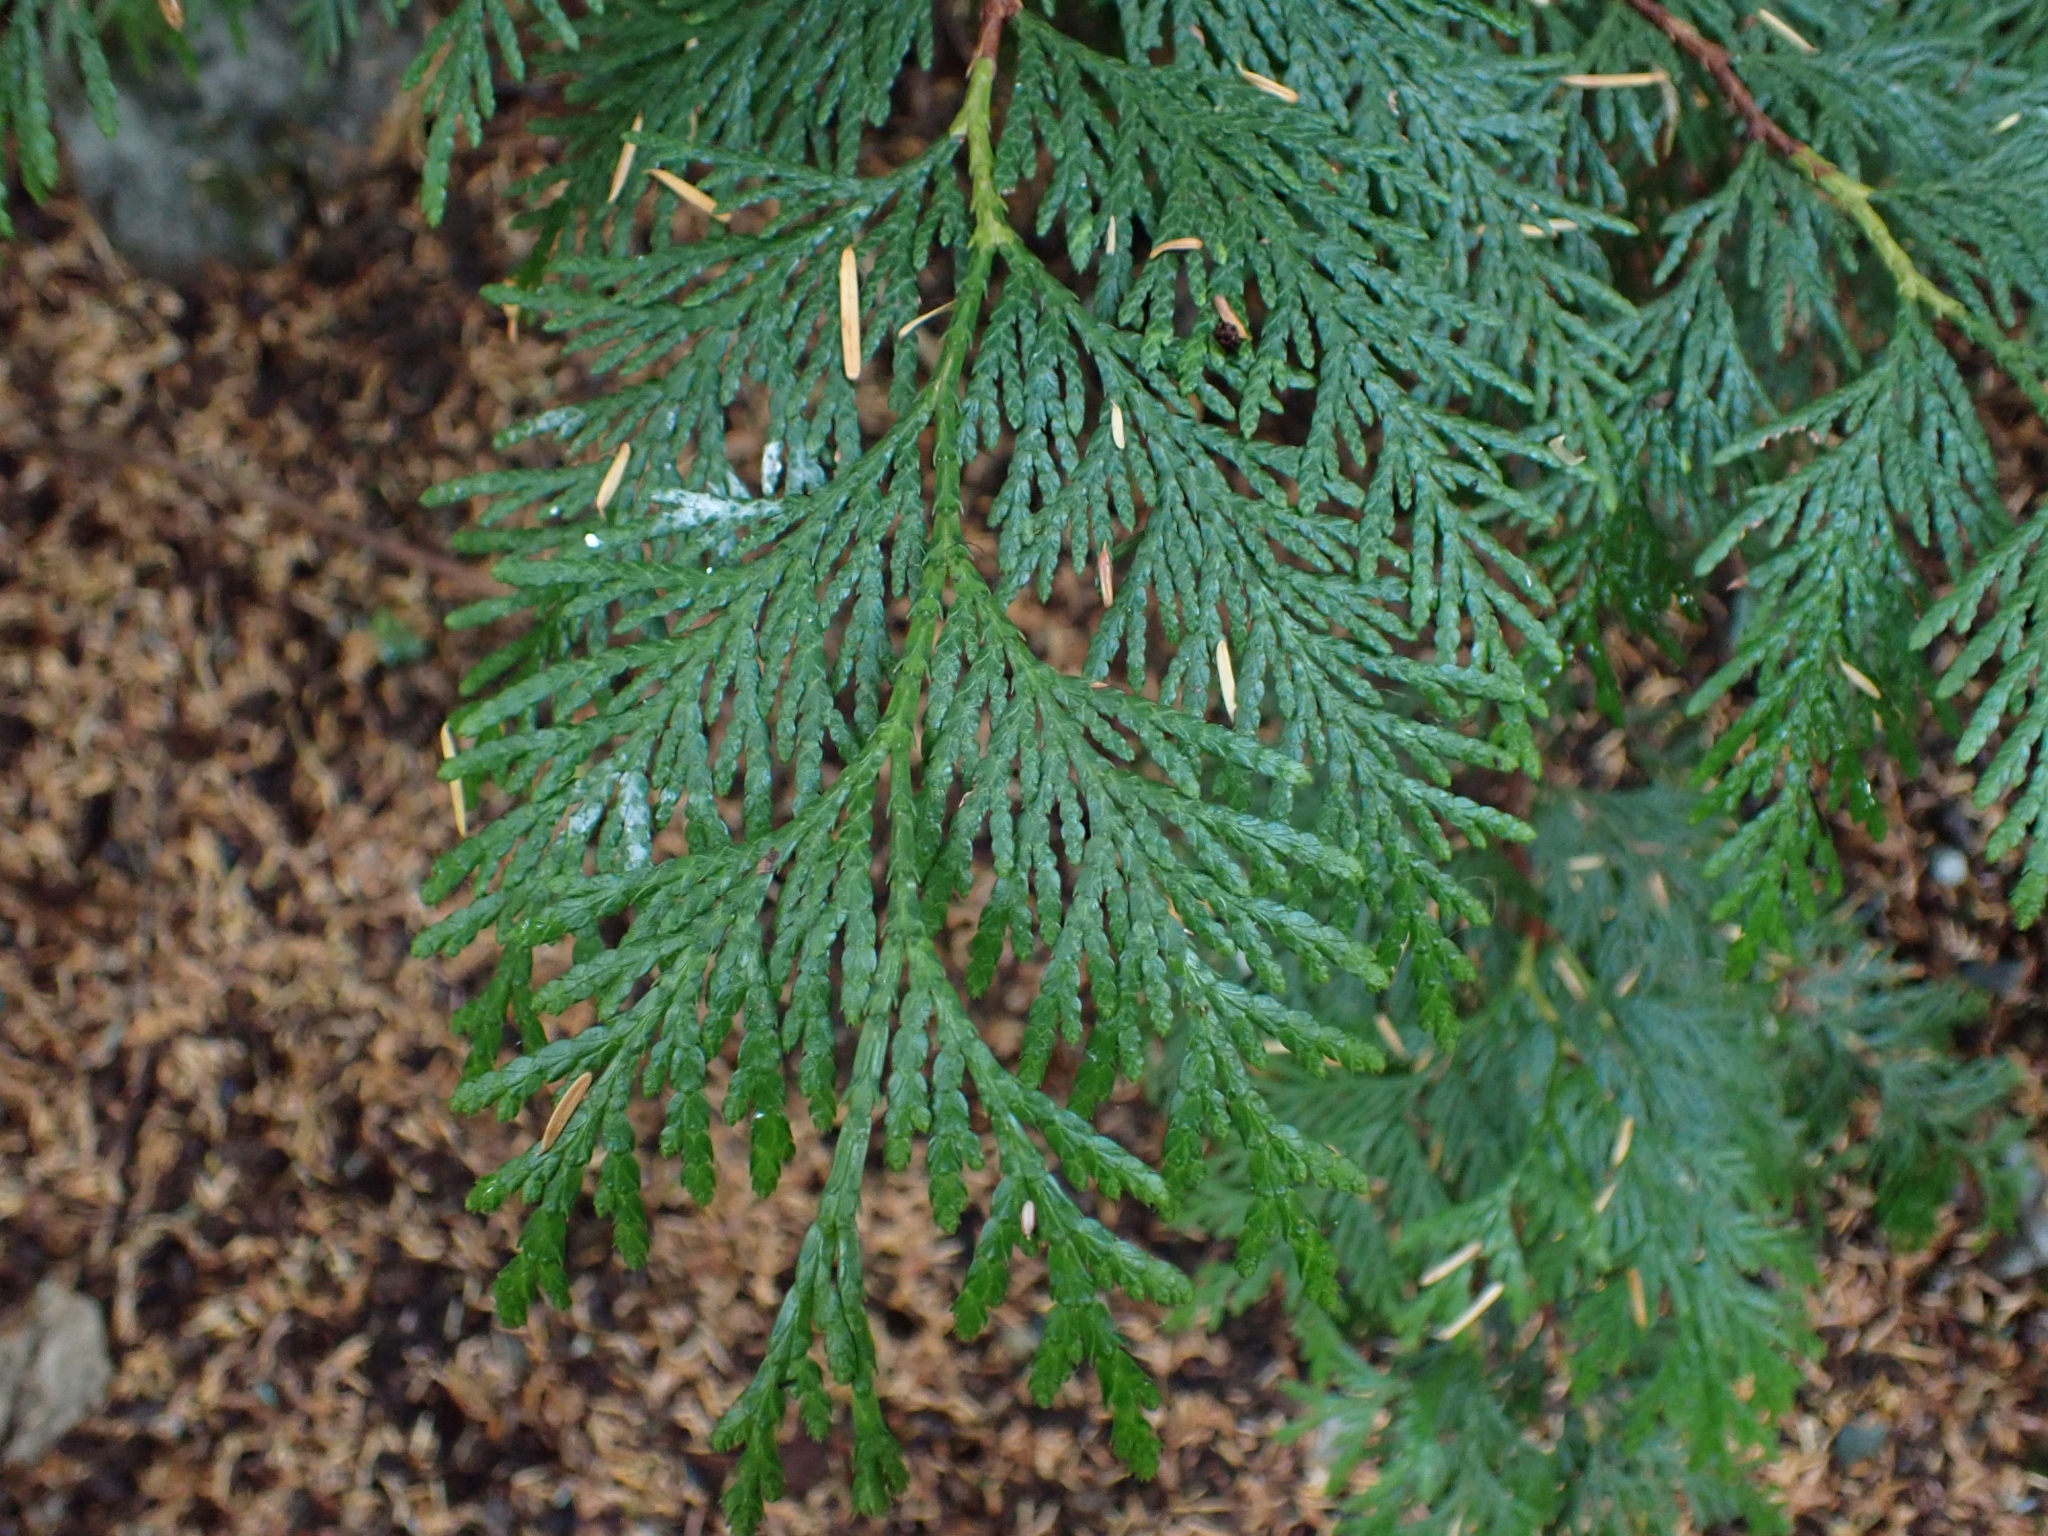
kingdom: Plantae
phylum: Tracheophyta
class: Pinopsida
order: Pinales
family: Cupressaceae
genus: Thuja
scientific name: Thuja plicata
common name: Western red-cedar
